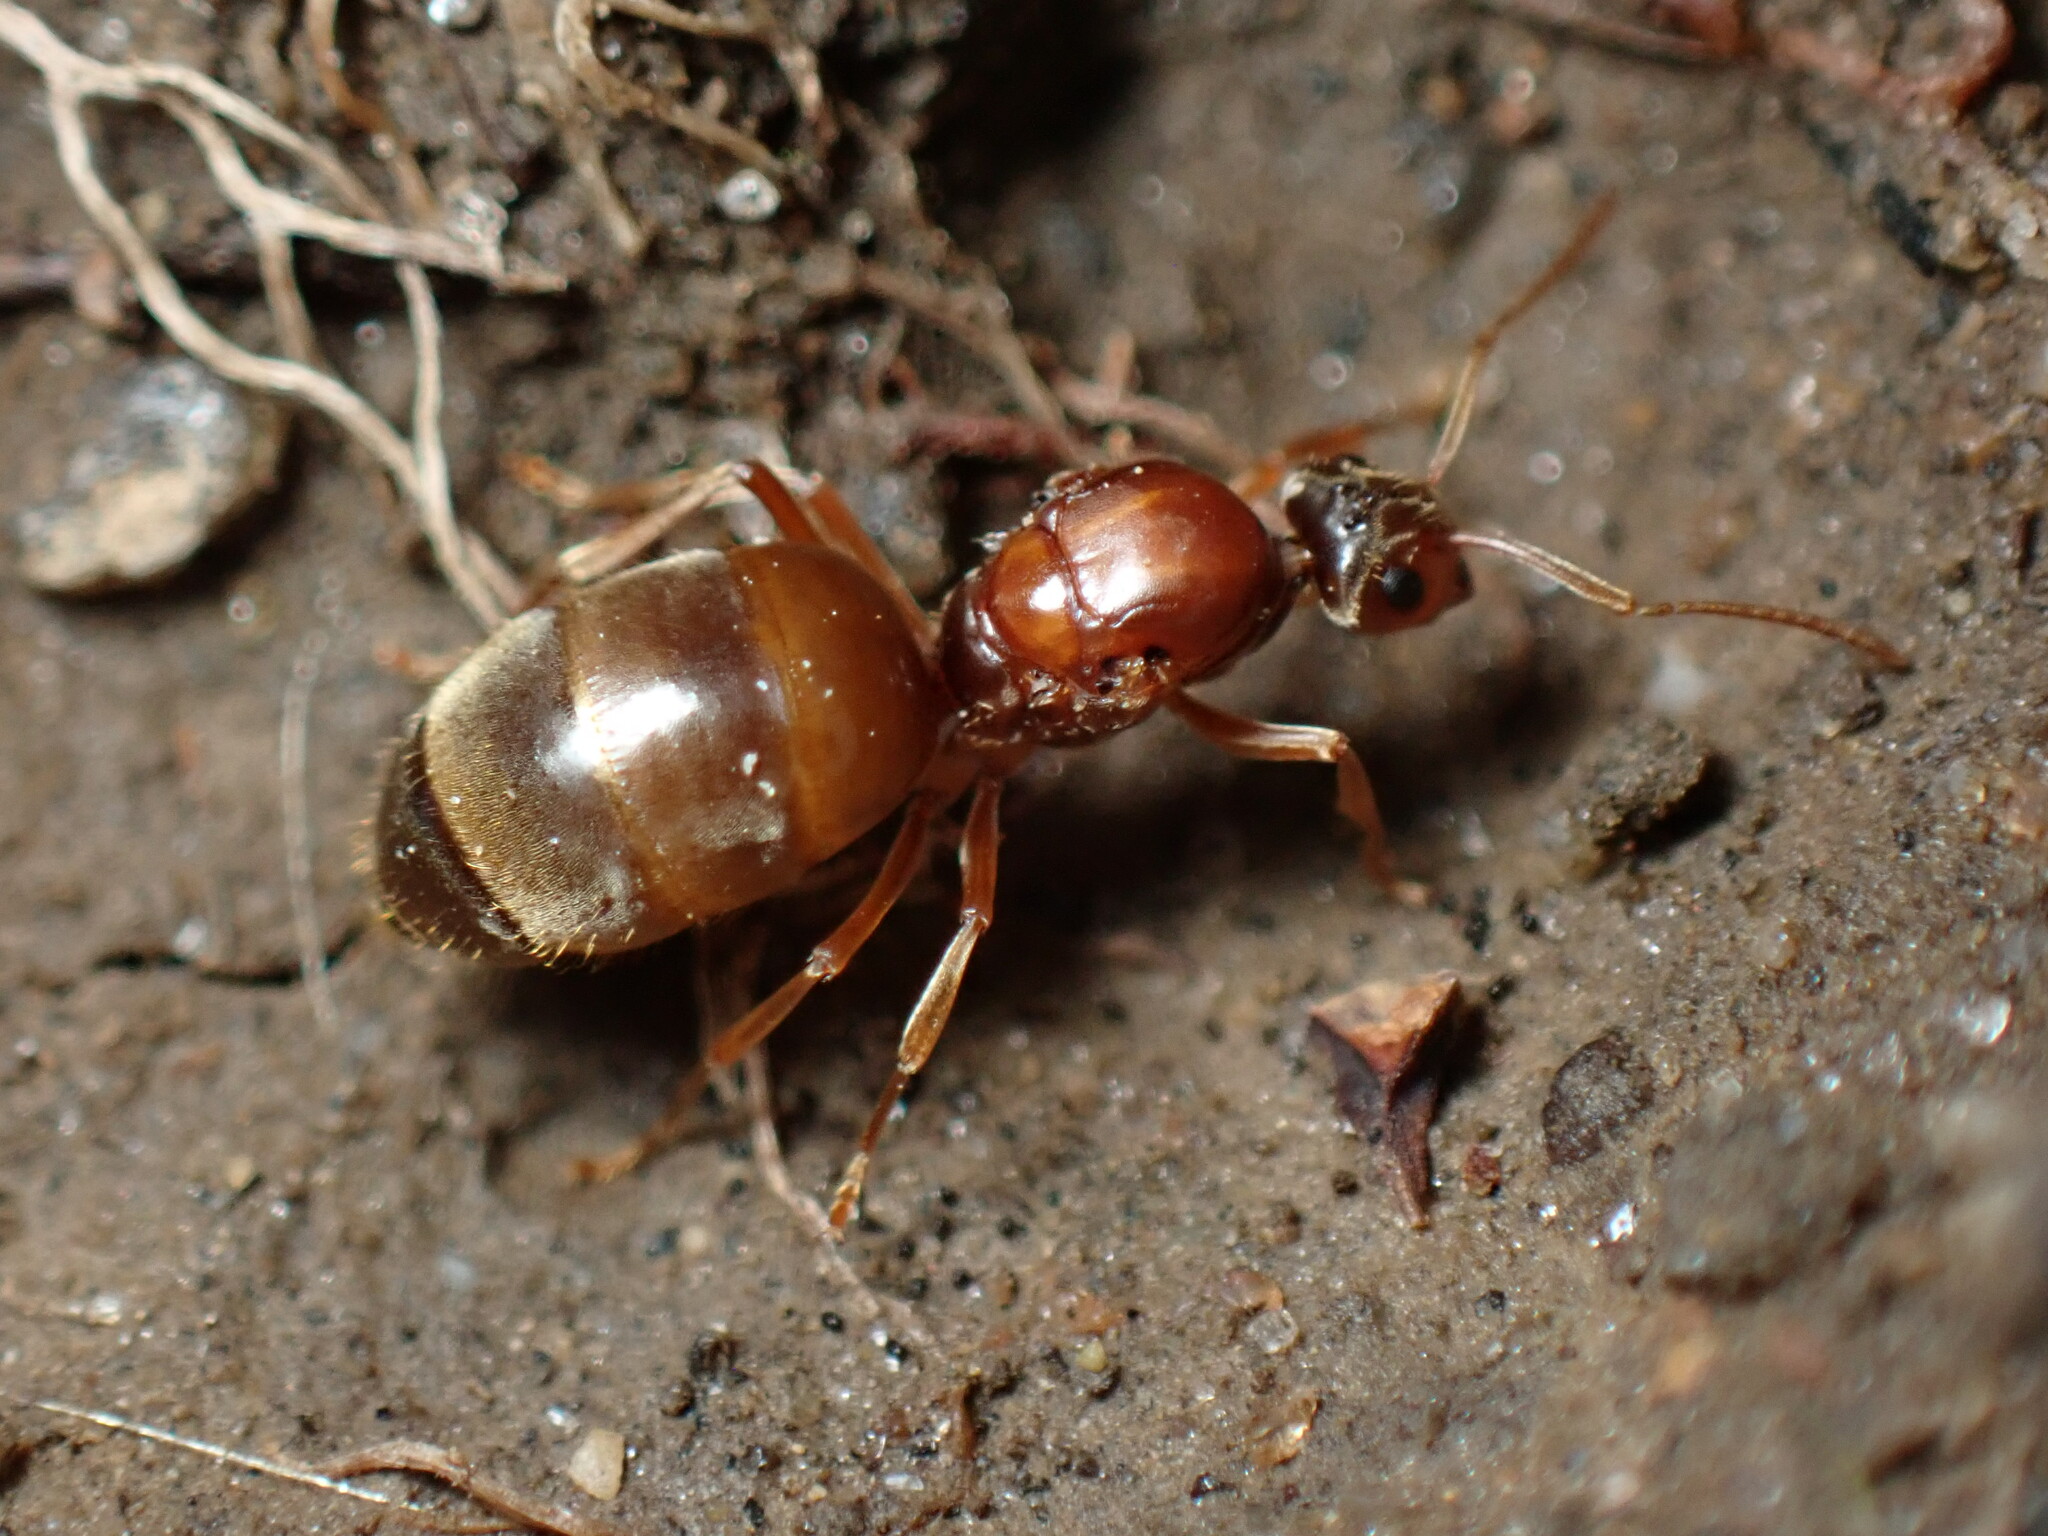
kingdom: Animalia
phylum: Arthropoda
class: Insecta
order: Hymenoptera
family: Formicidae
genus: Prenolepis
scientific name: Prenolepis imparis
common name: Small honey ant
